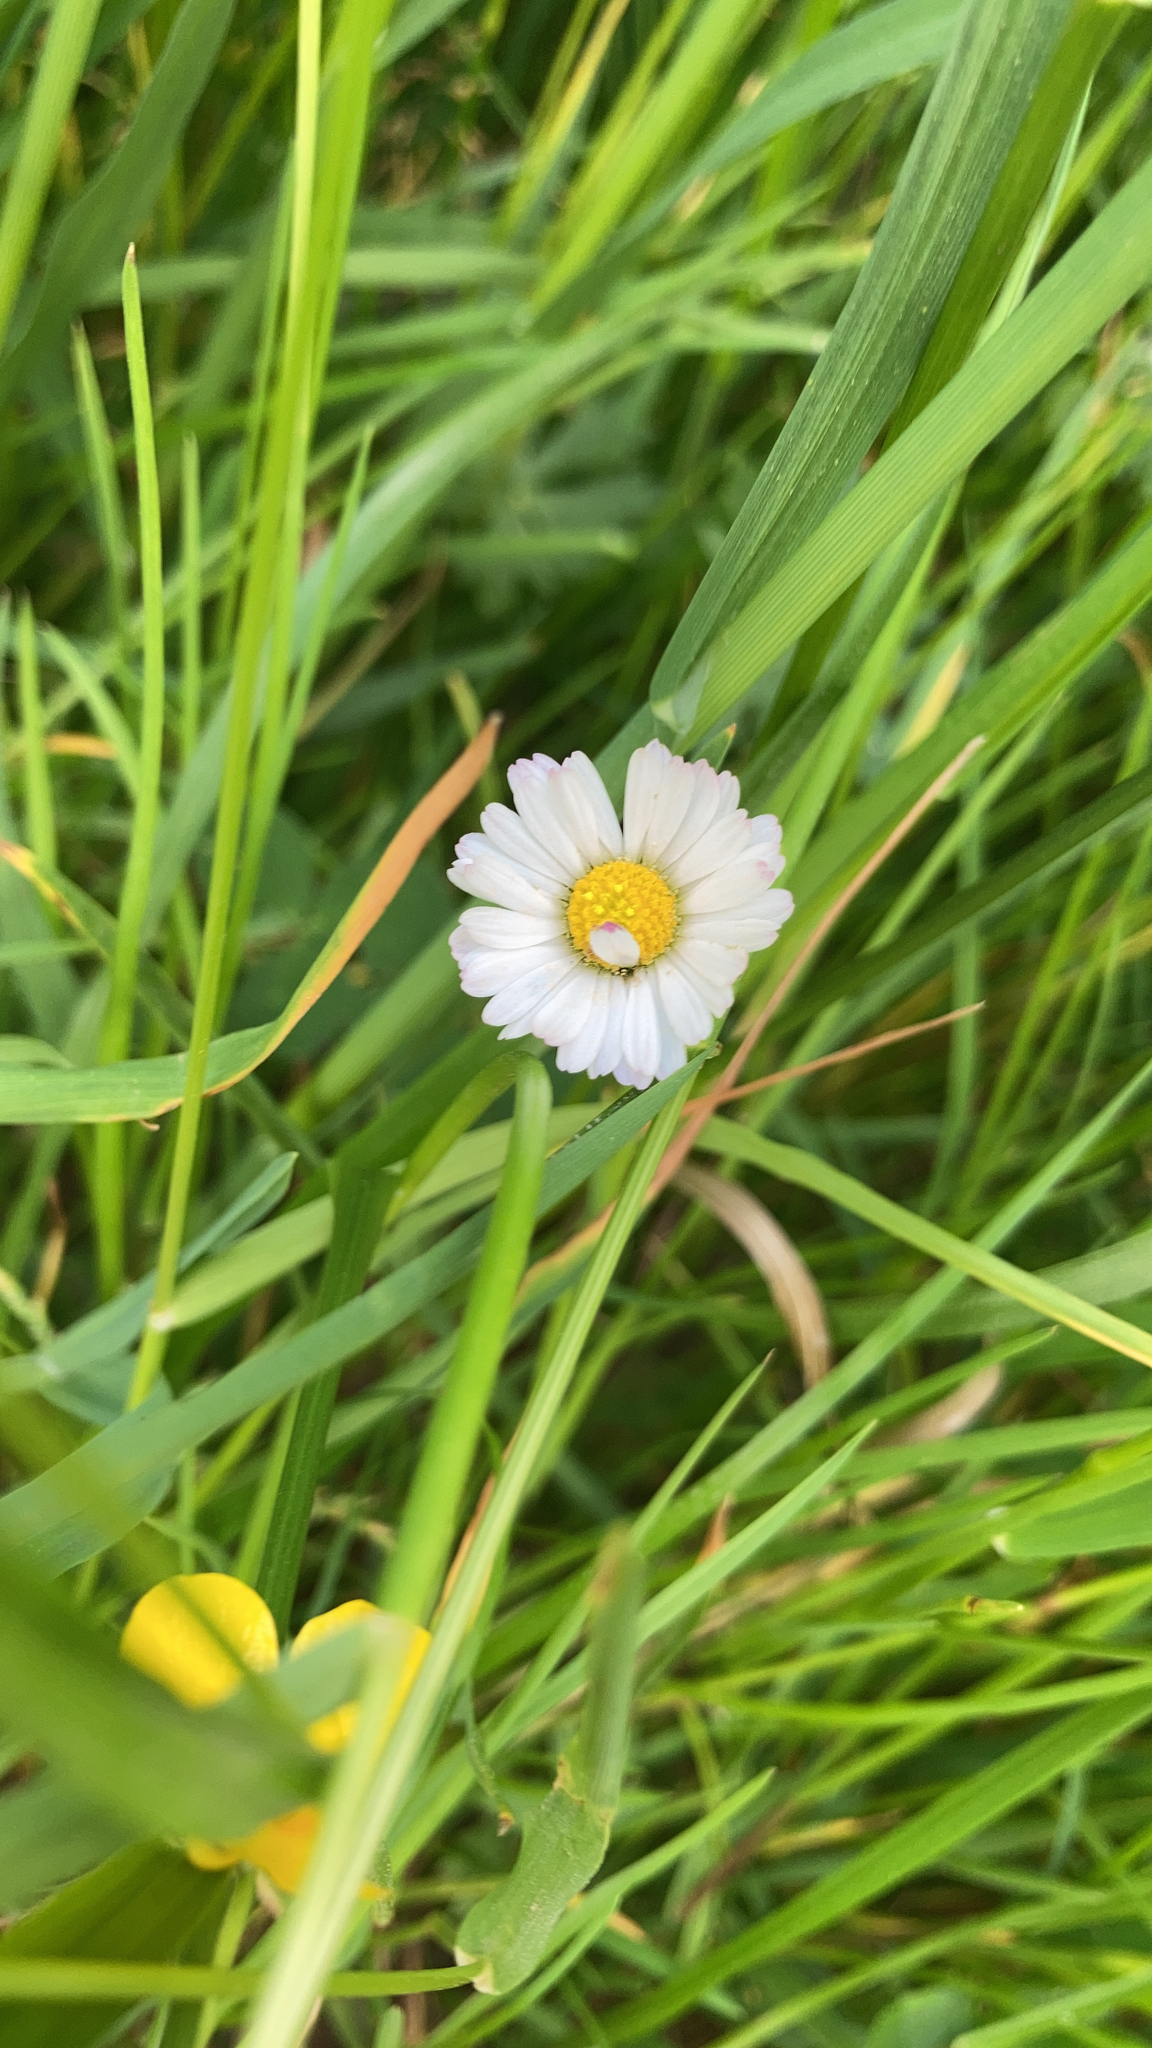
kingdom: Plantae
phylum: Tracheophyta
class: Magnoliopsida
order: Asterales
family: Asteraceae
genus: Bellis
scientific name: Bellis perennis
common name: Lawndaisy
